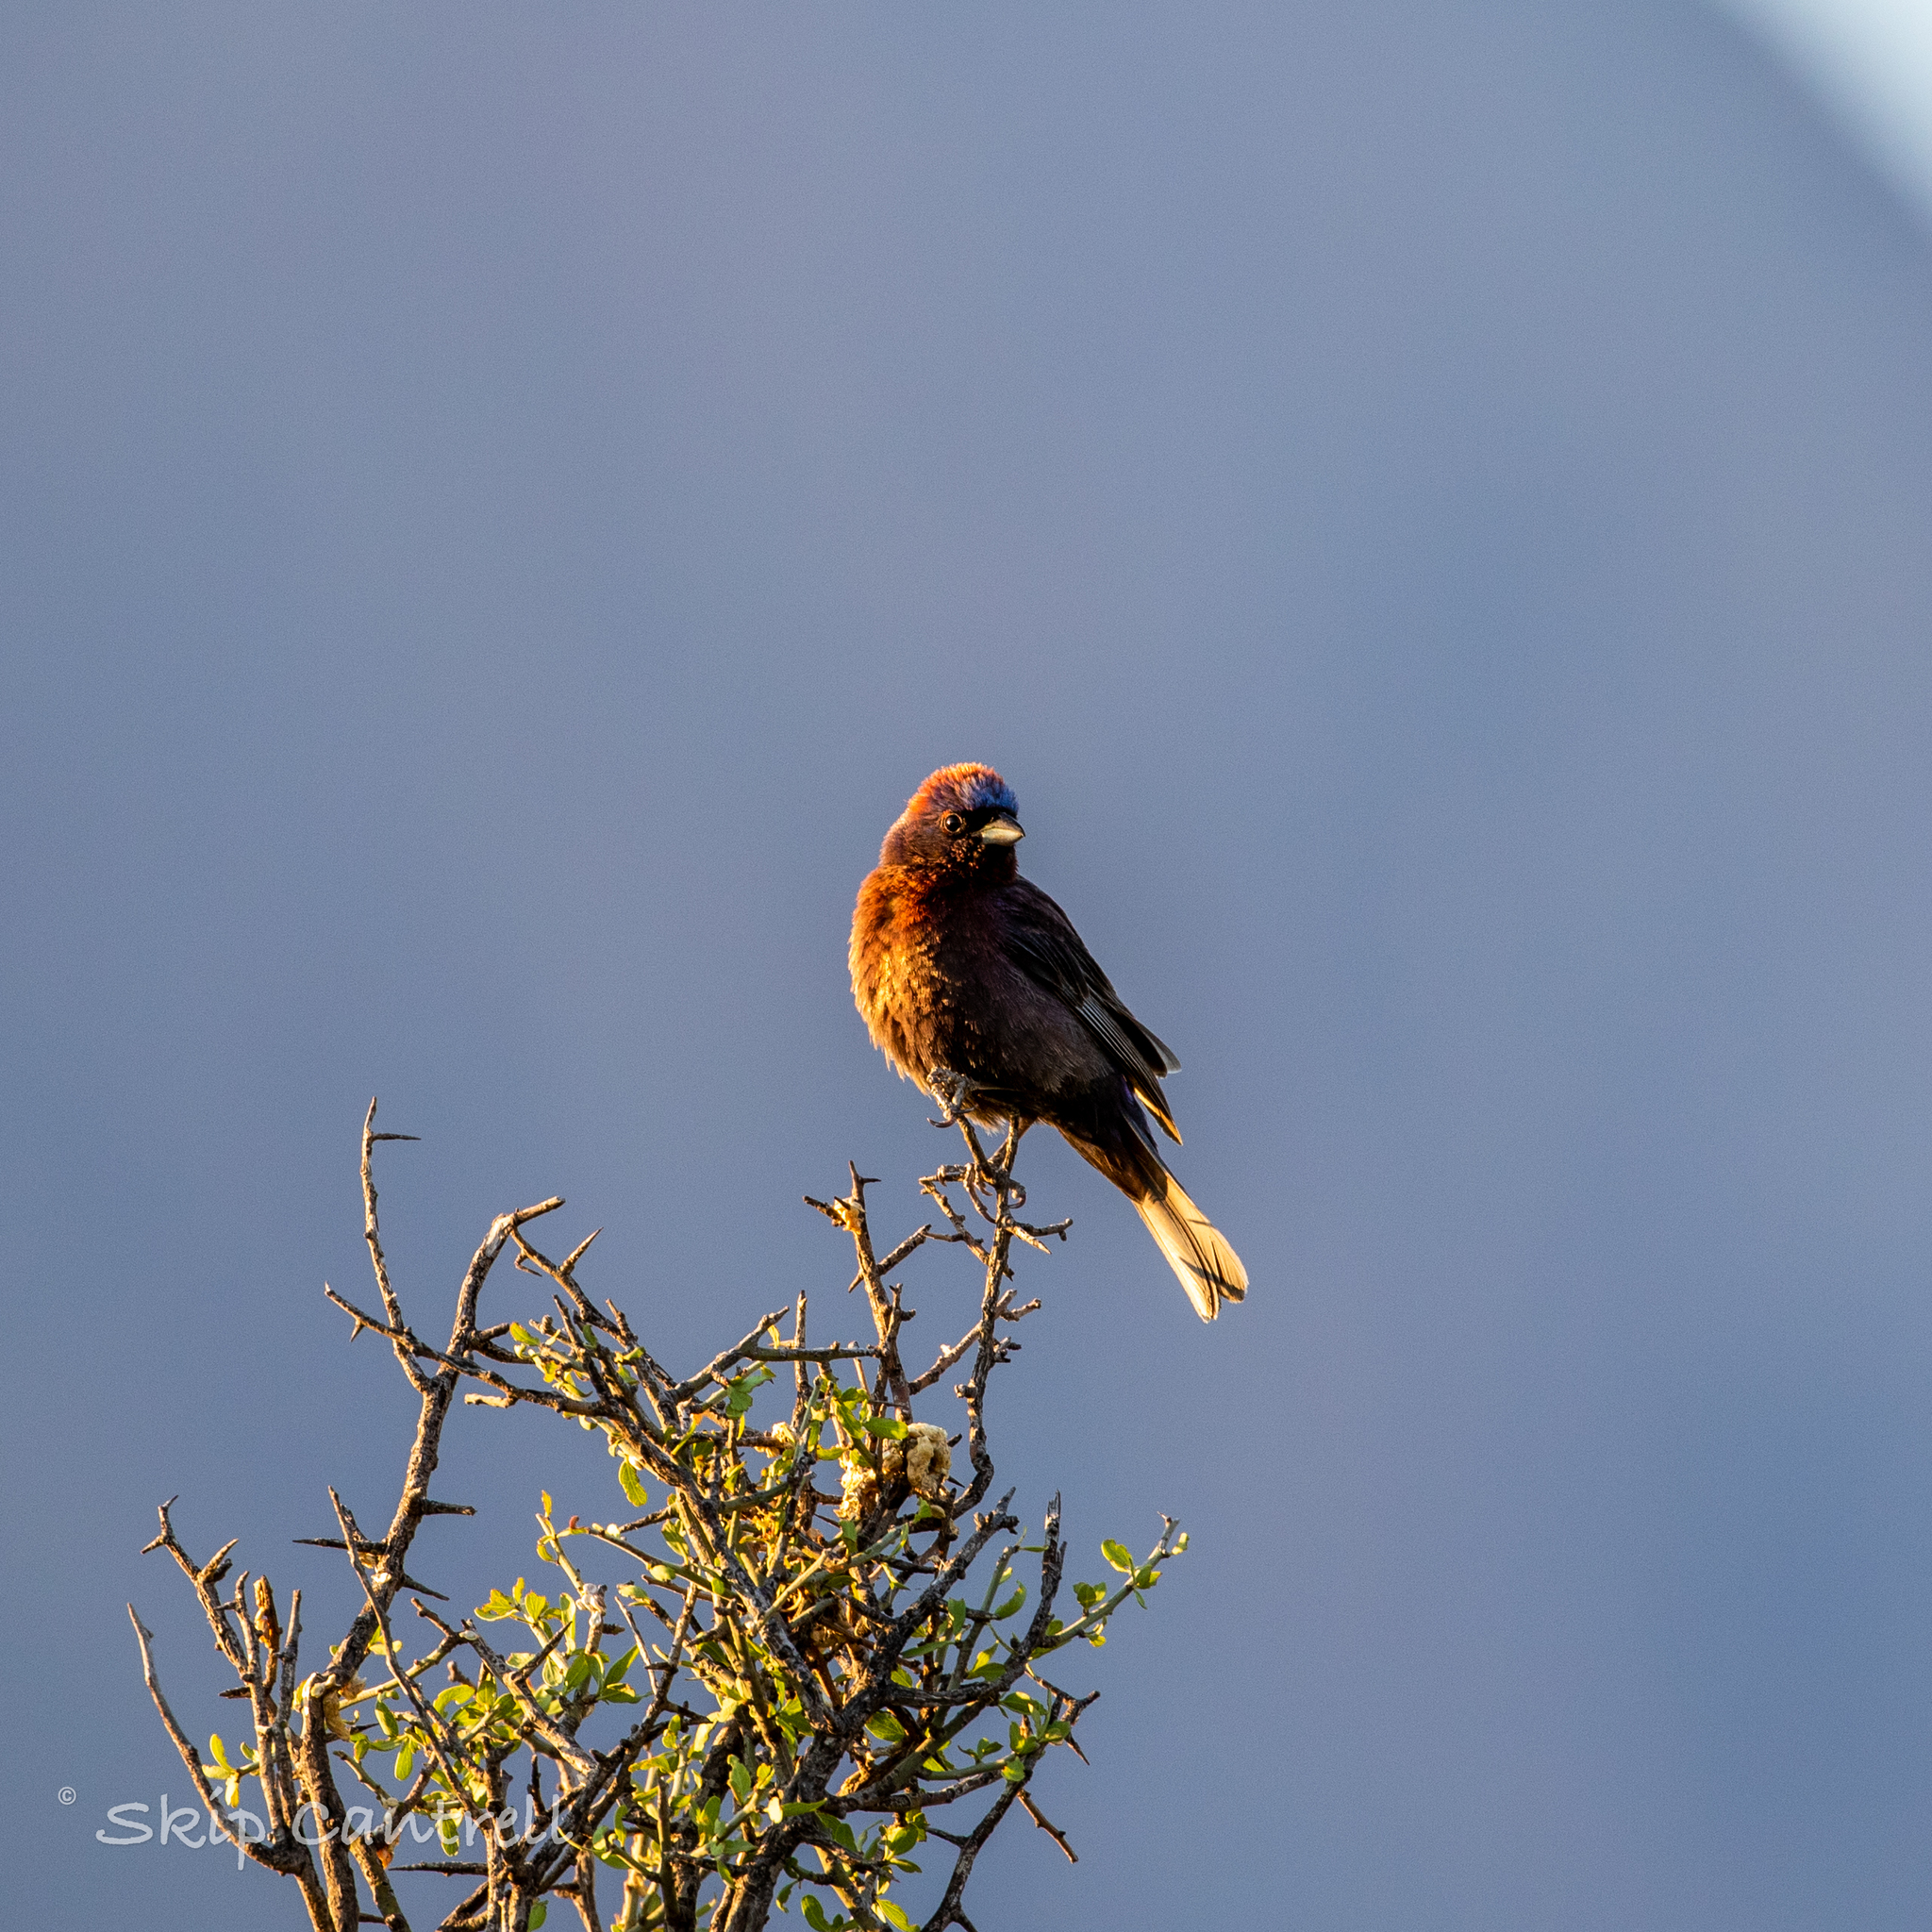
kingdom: Animalia
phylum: Chordata
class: Aves
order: Passeriformes
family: Cardinalidae
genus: Passerina
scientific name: Passerina versicolor
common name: Varied bunting
